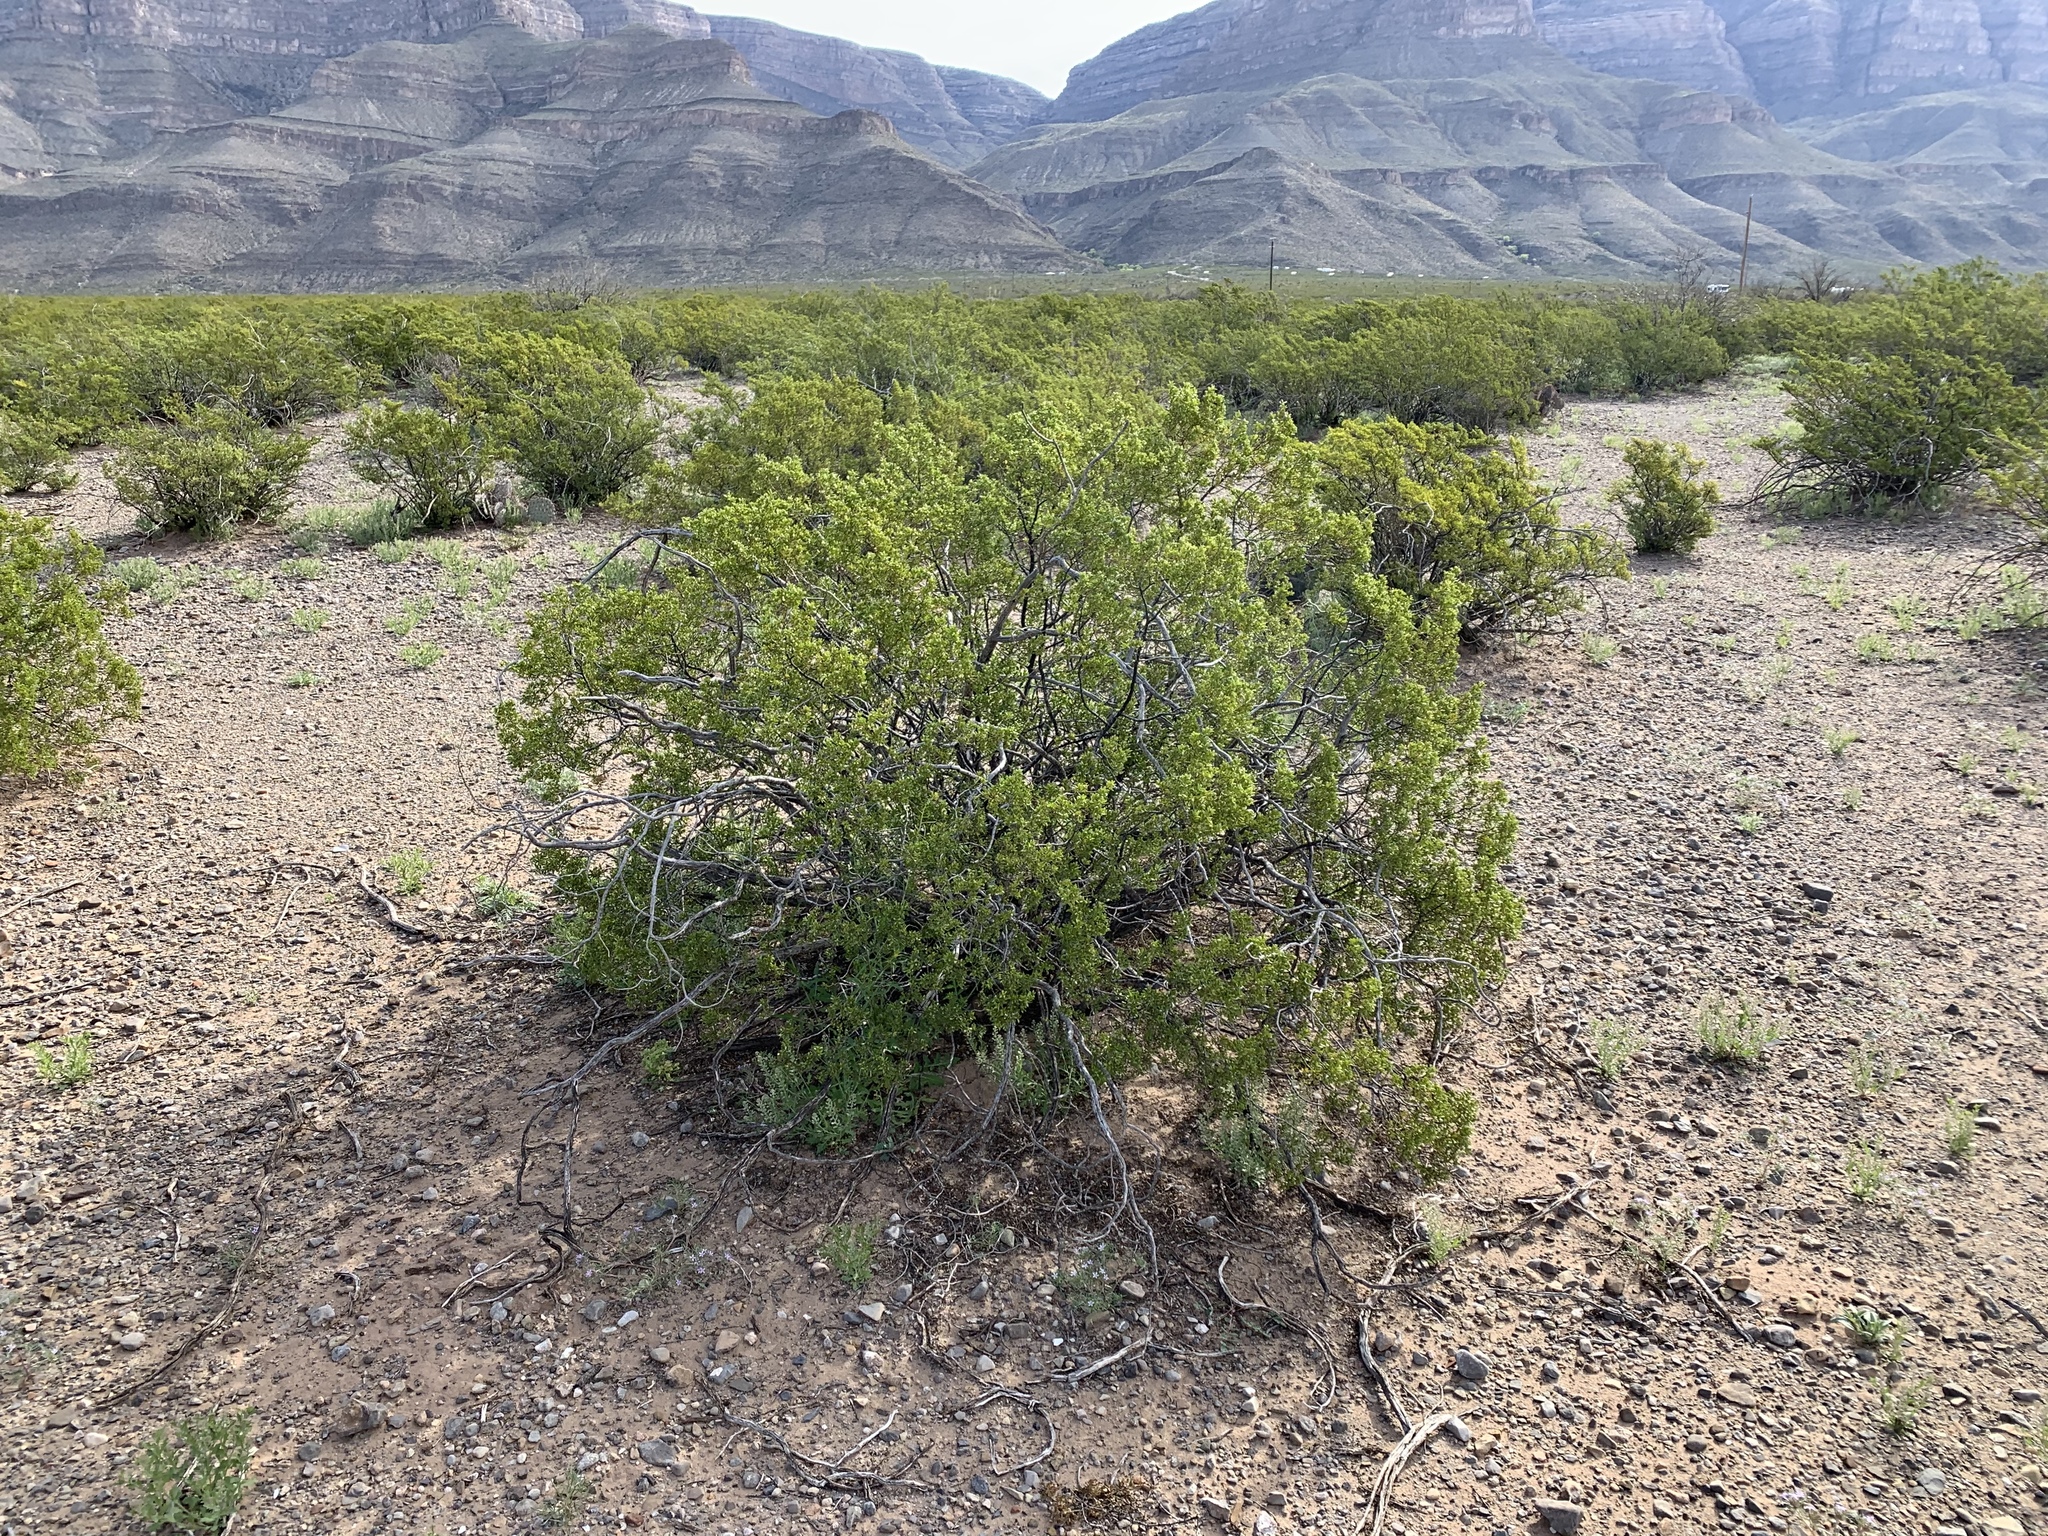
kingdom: Plantae
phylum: Tracheophyta
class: Magnoliopsida
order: Zygophyllales
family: Zygophyllaceae
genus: Larrea
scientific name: Larrea tridentata
